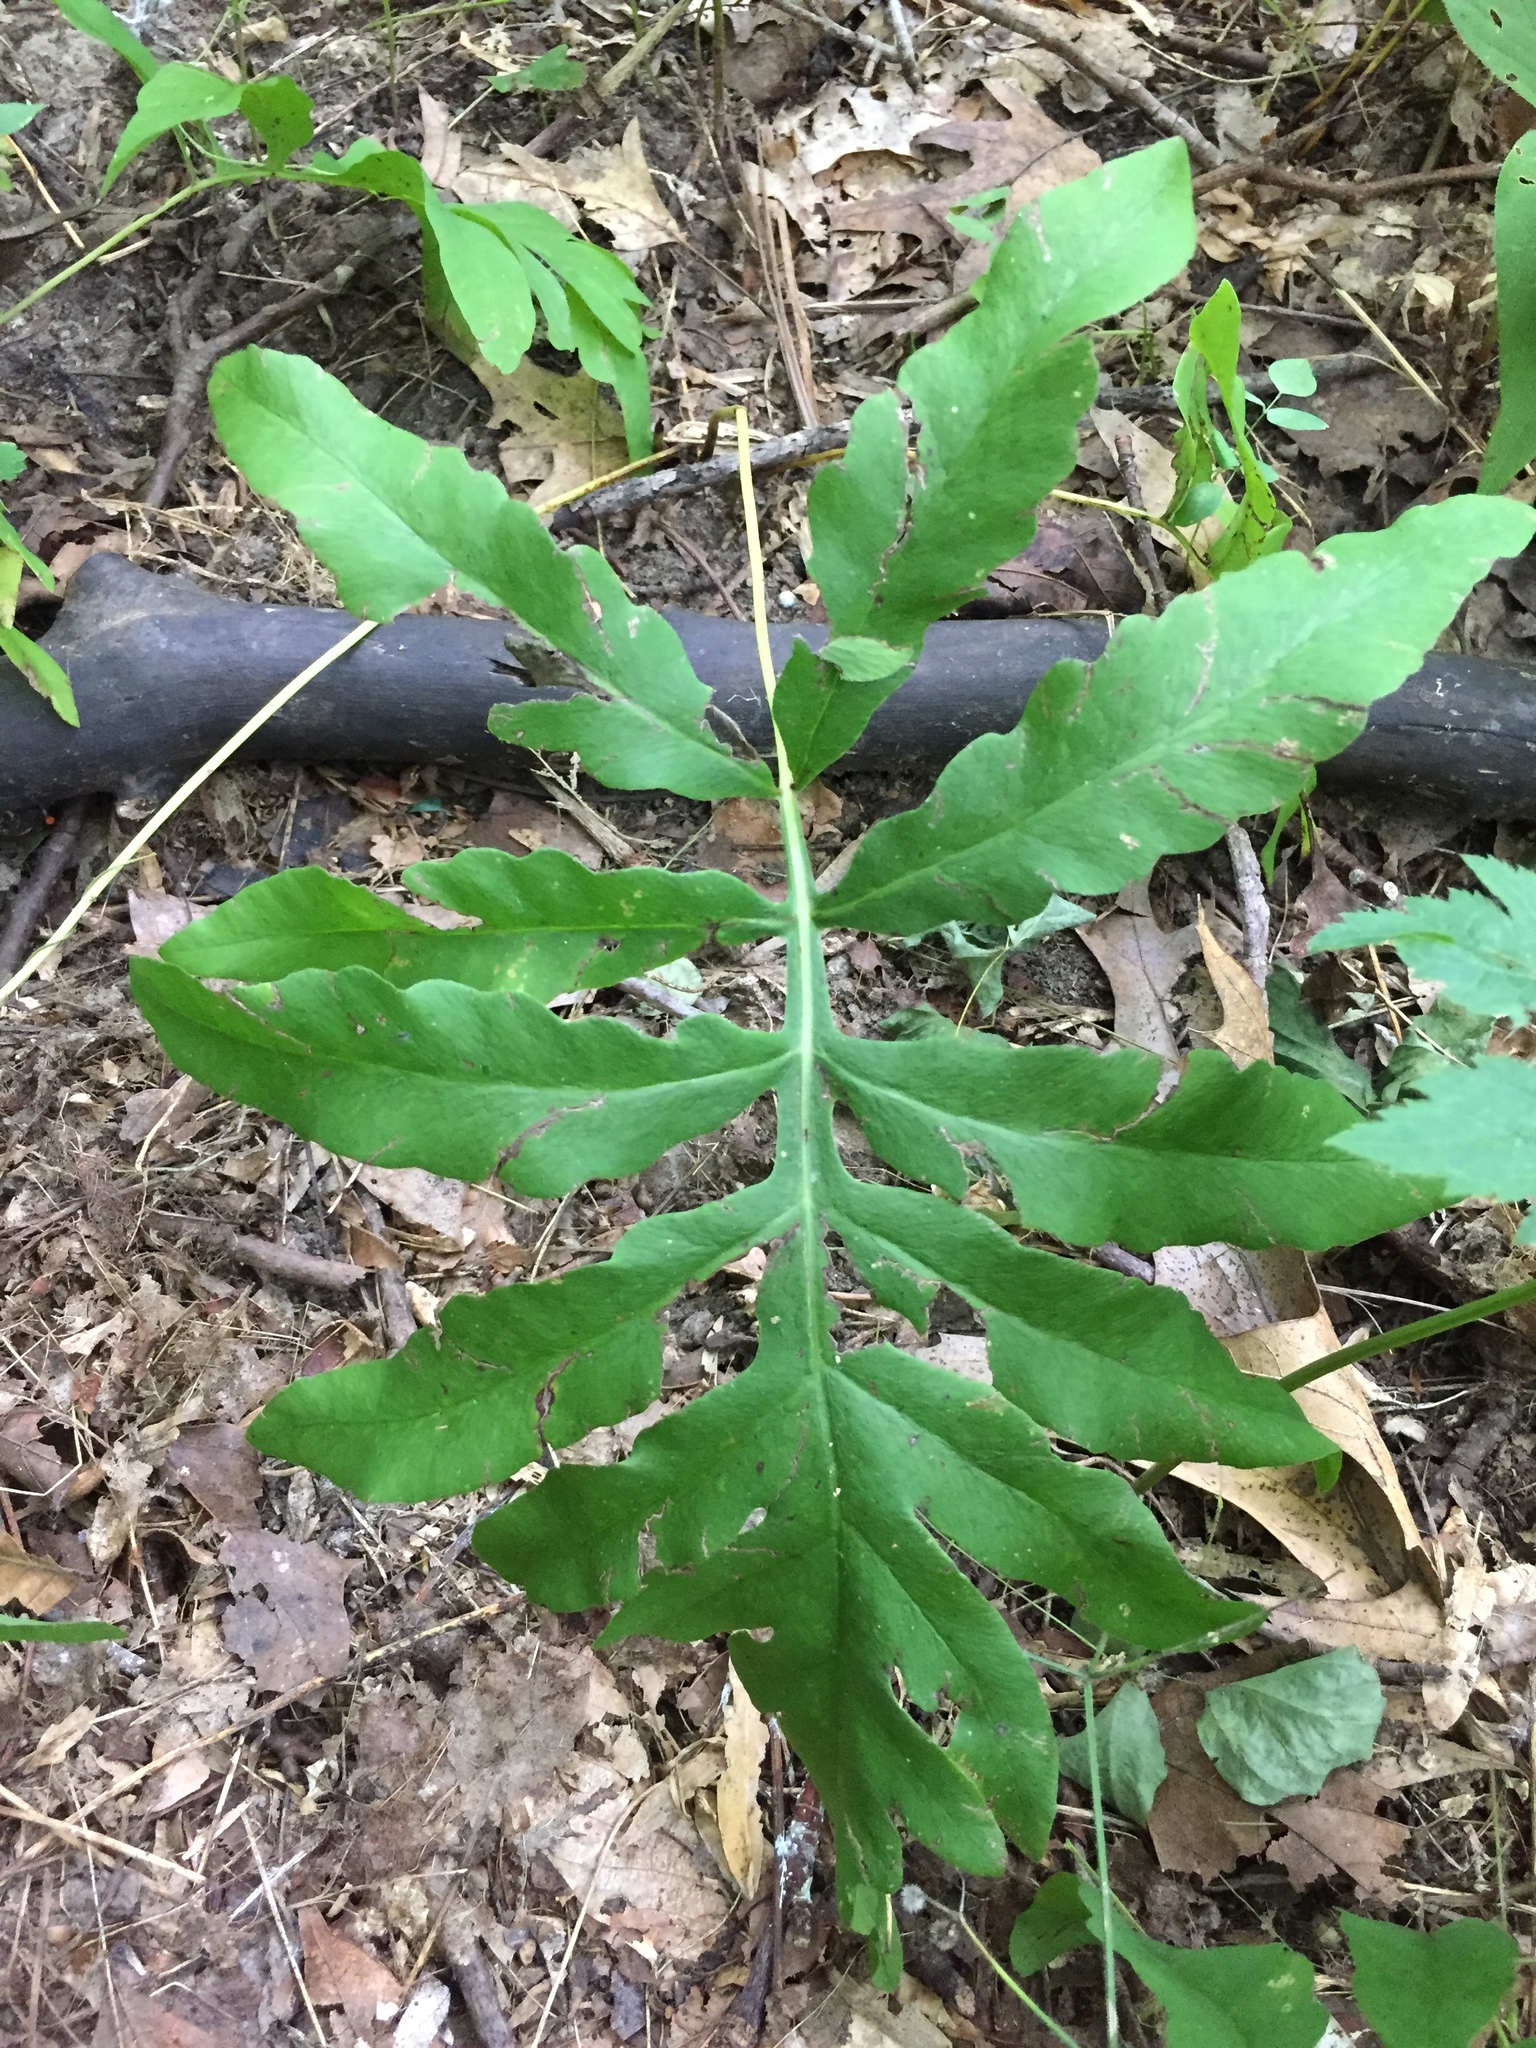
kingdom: Plantae
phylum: Tracheophyta
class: Polypodiopsida
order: Polypodiales
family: Onocleaceae
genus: Onoclea
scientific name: Onoclea sensibilis
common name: Sensitive fern
